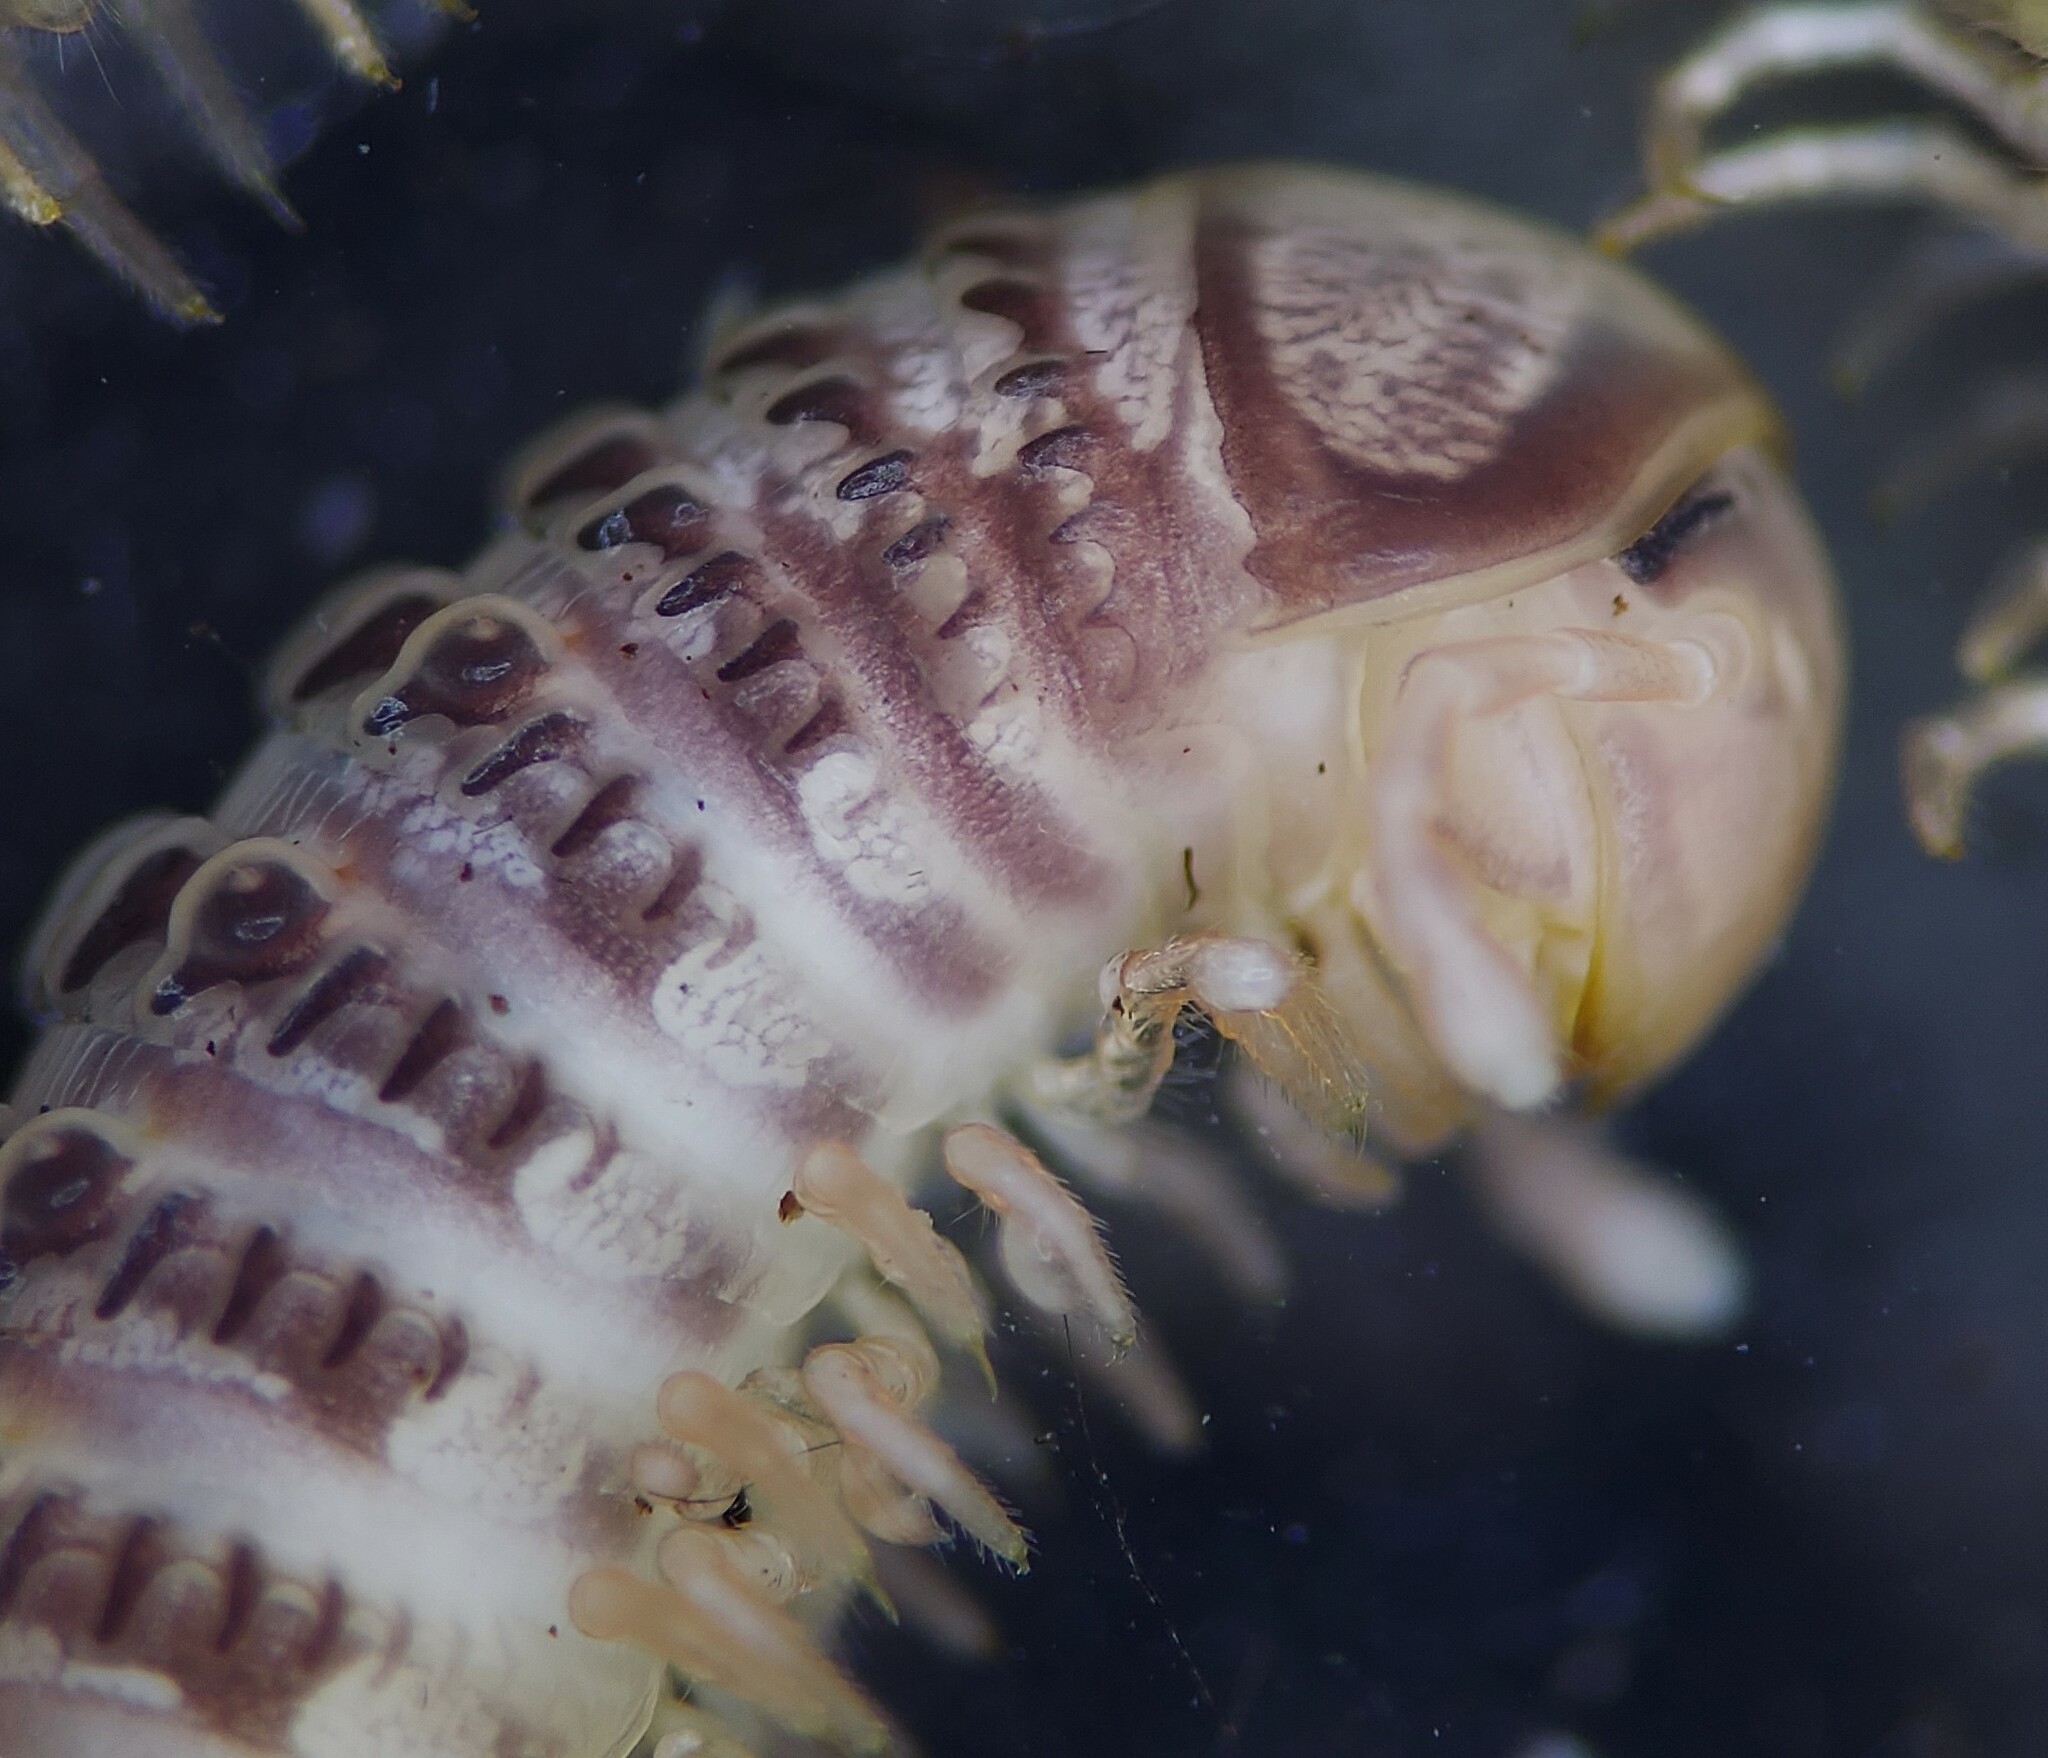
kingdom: Animalia
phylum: Arthropoda
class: Diplopoda
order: Spirostreptida
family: Cambalidae
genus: Cambala
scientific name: Cambala annulata
